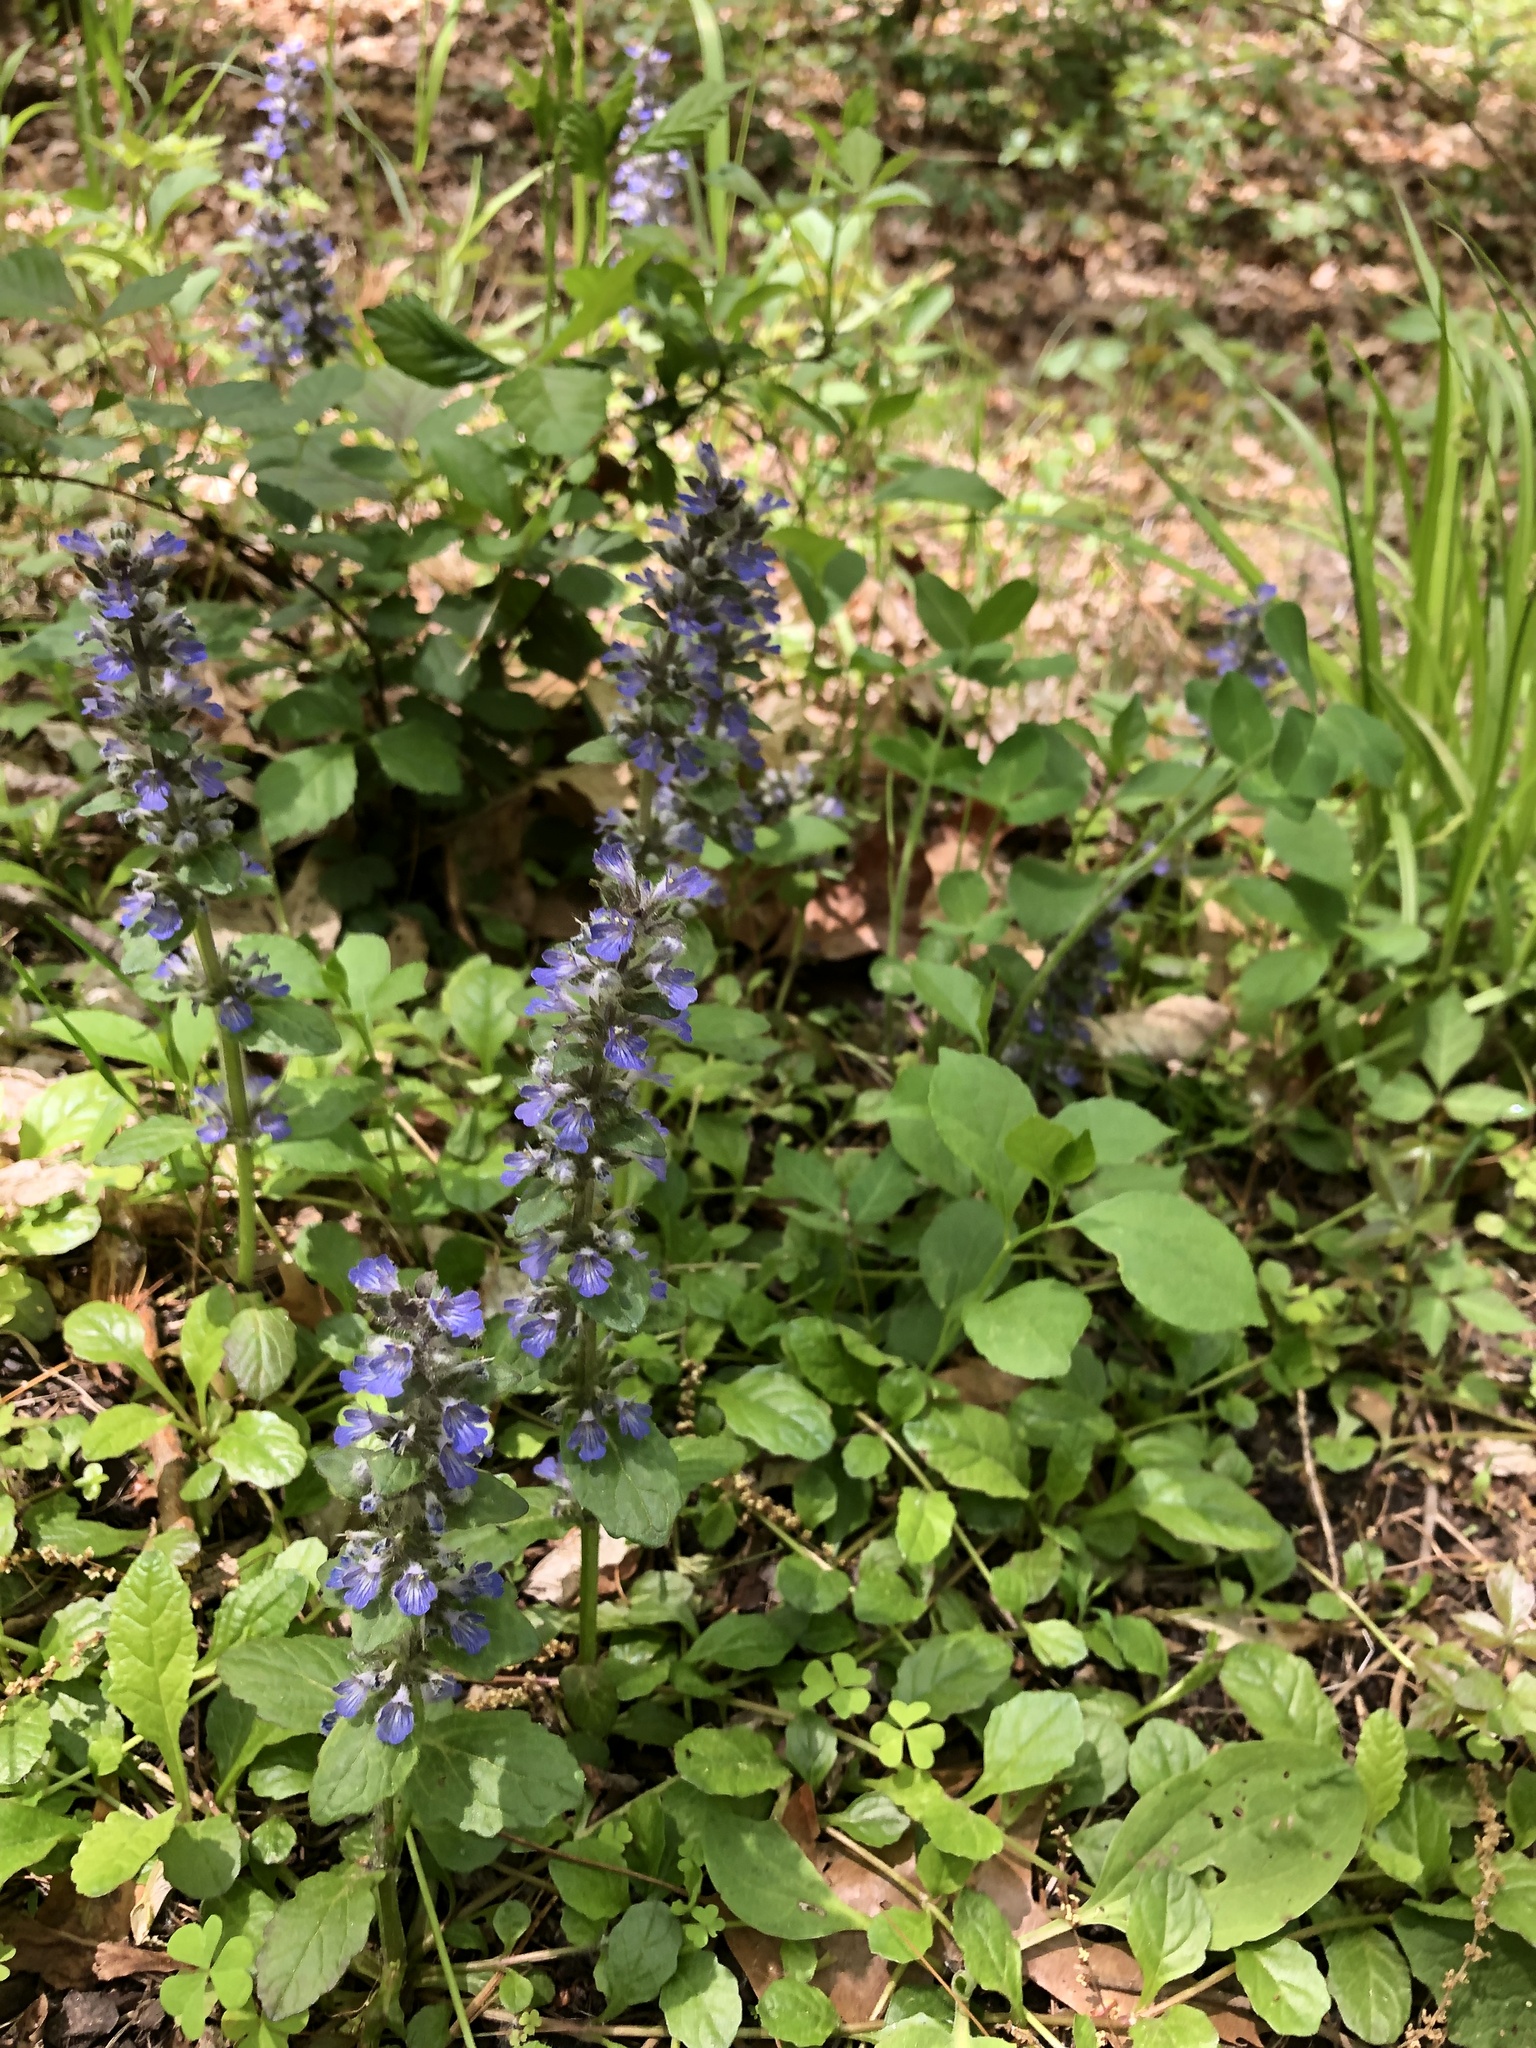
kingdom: Plantae
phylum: Tracheophyta
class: Magnoliopsida
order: Lamiales
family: Lamiaceae
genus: Ajuga
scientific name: Ajuga reptans
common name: Bugle
